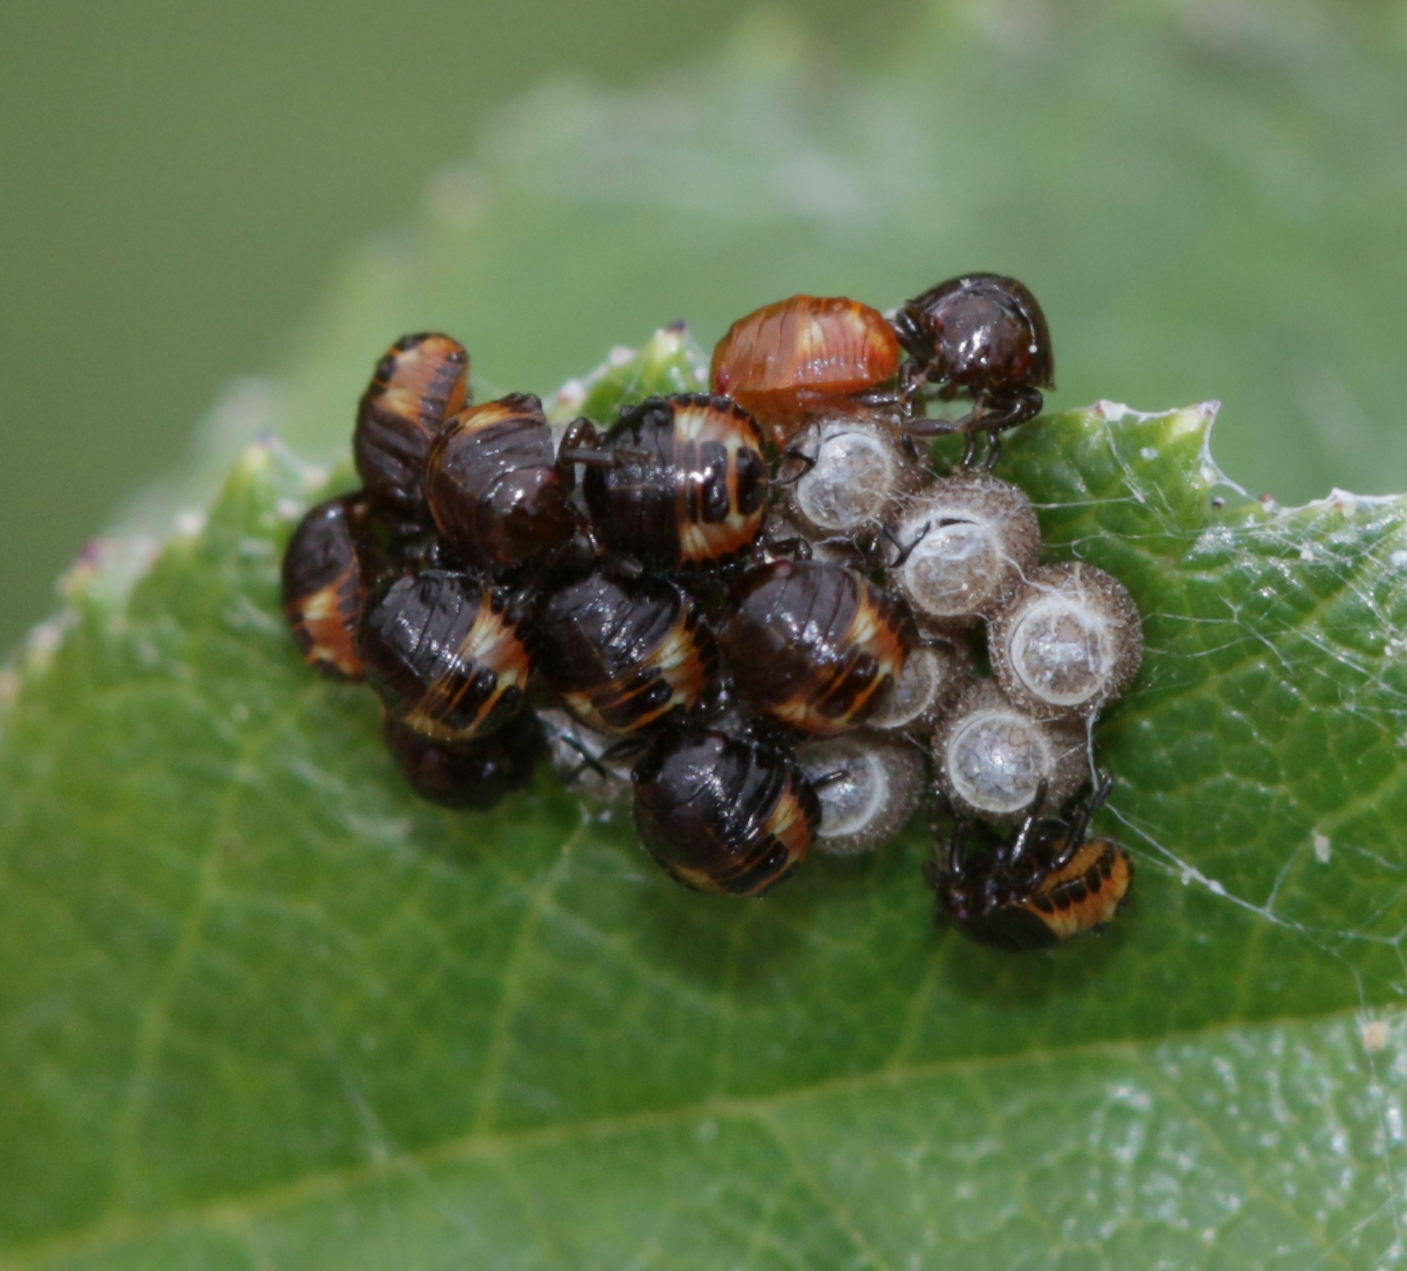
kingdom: Animalia
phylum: Arthropoda
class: Insecta
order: Hemiptera
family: Pentatomidae
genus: Dolycoris
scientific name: Dolycoris baccarum
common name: Sloe bug
